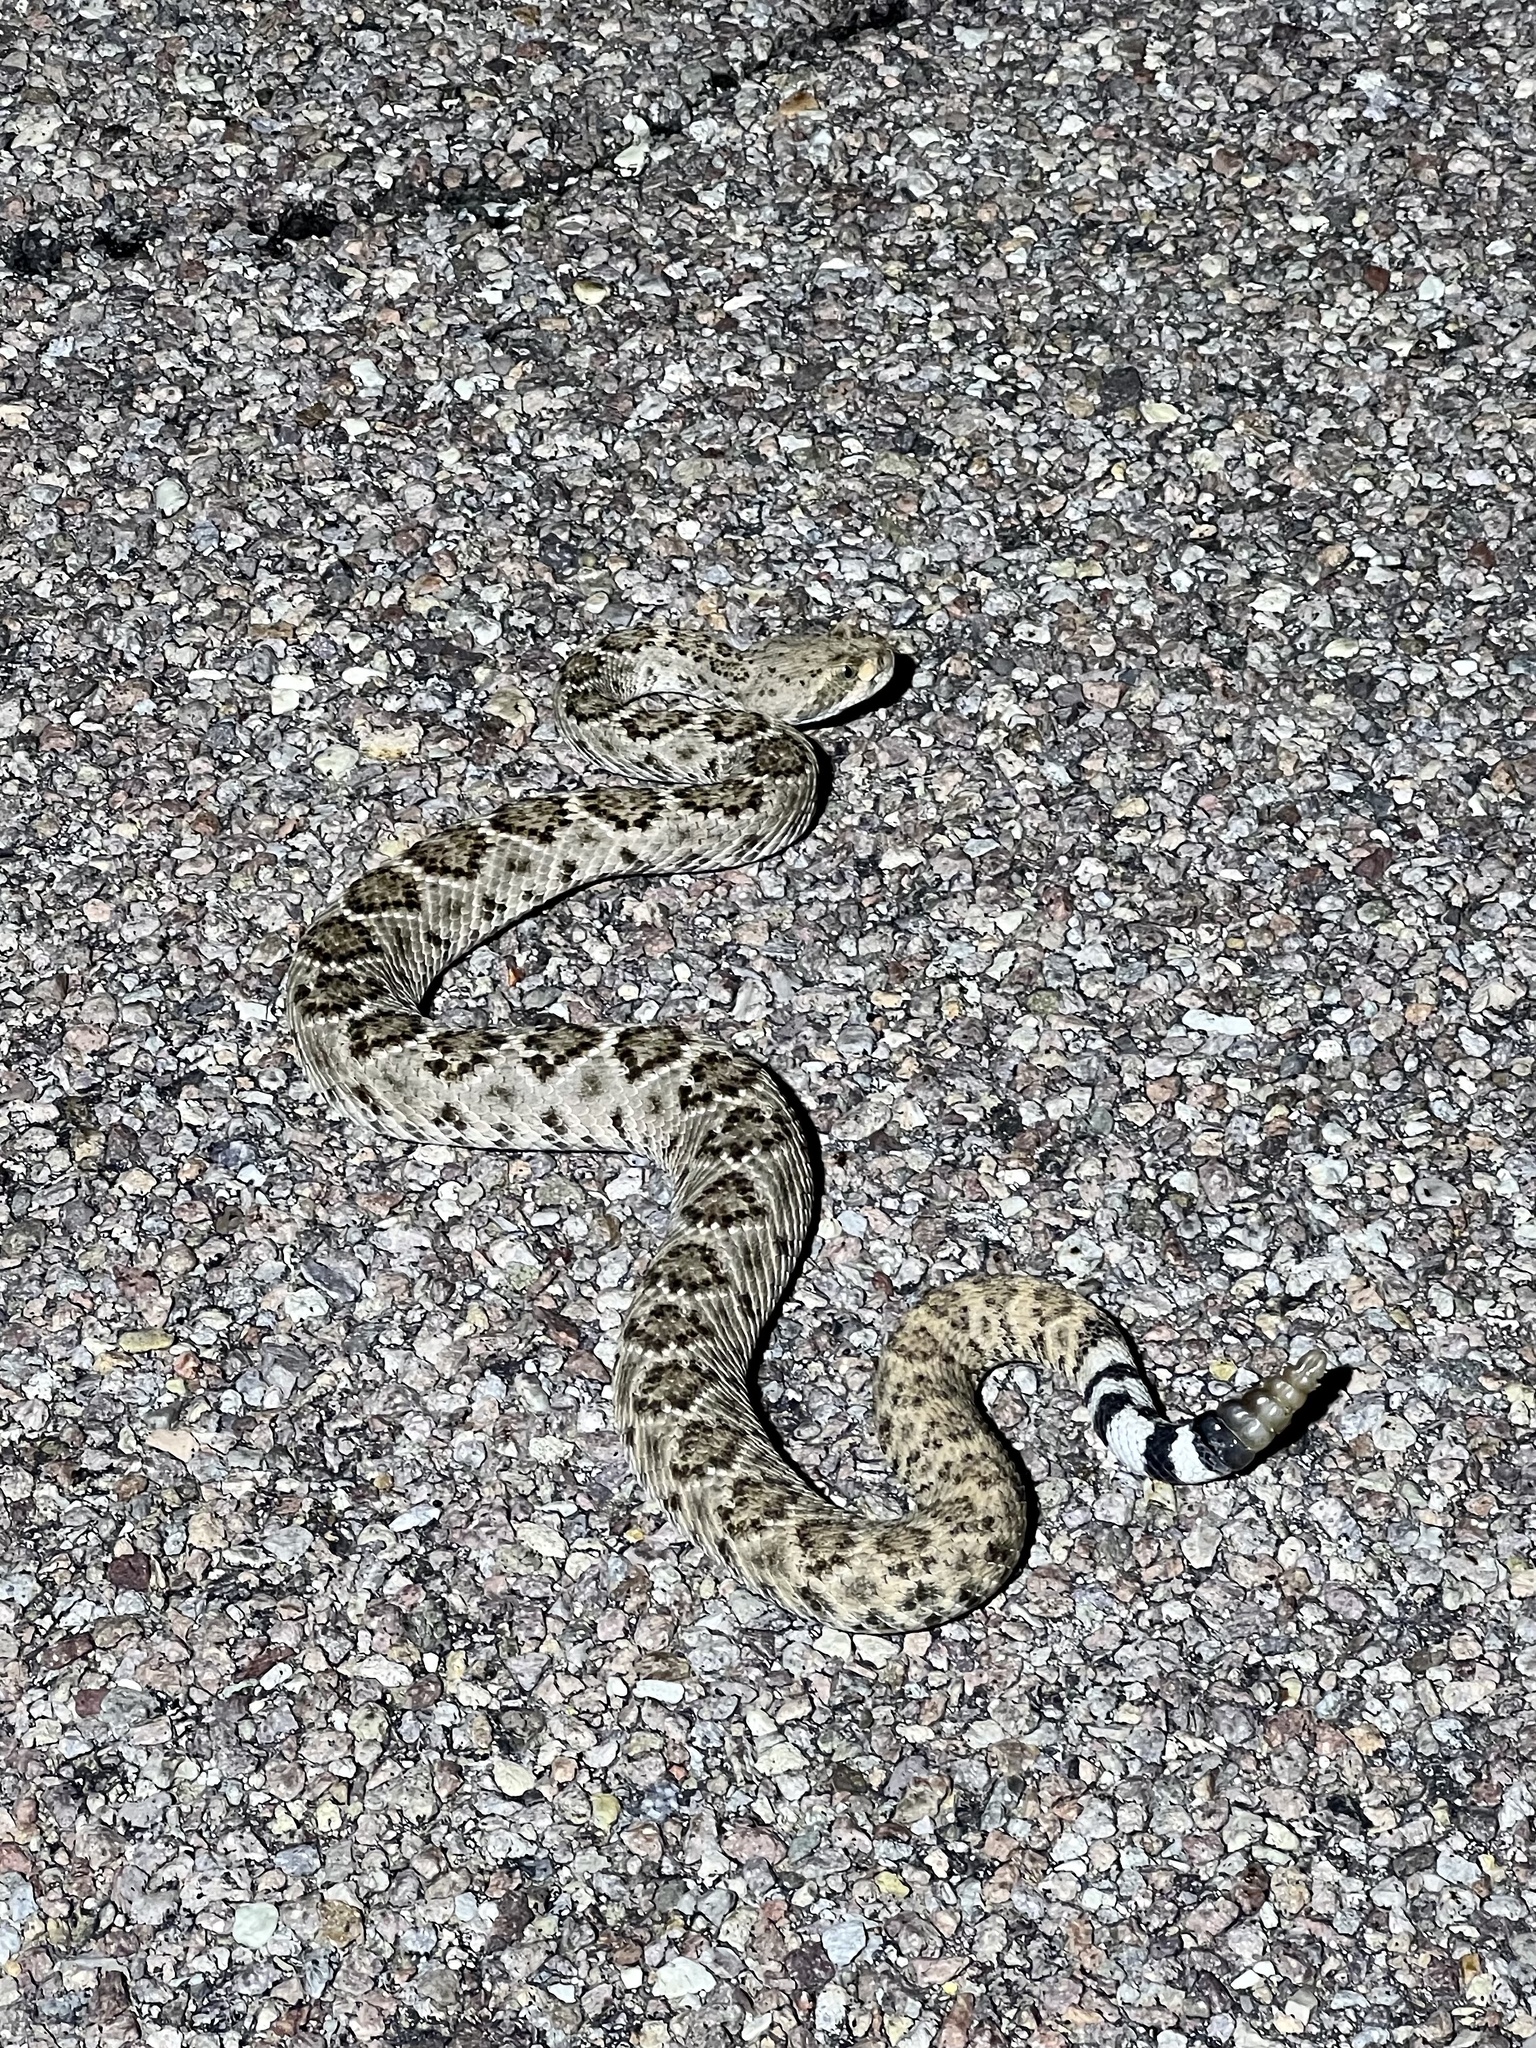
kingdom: Animalia
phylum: Chordata
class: Squamata
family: Viperidae
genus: Crotalus
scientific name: Crotalus atrox
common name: Western diamond-backed rattlesnake
